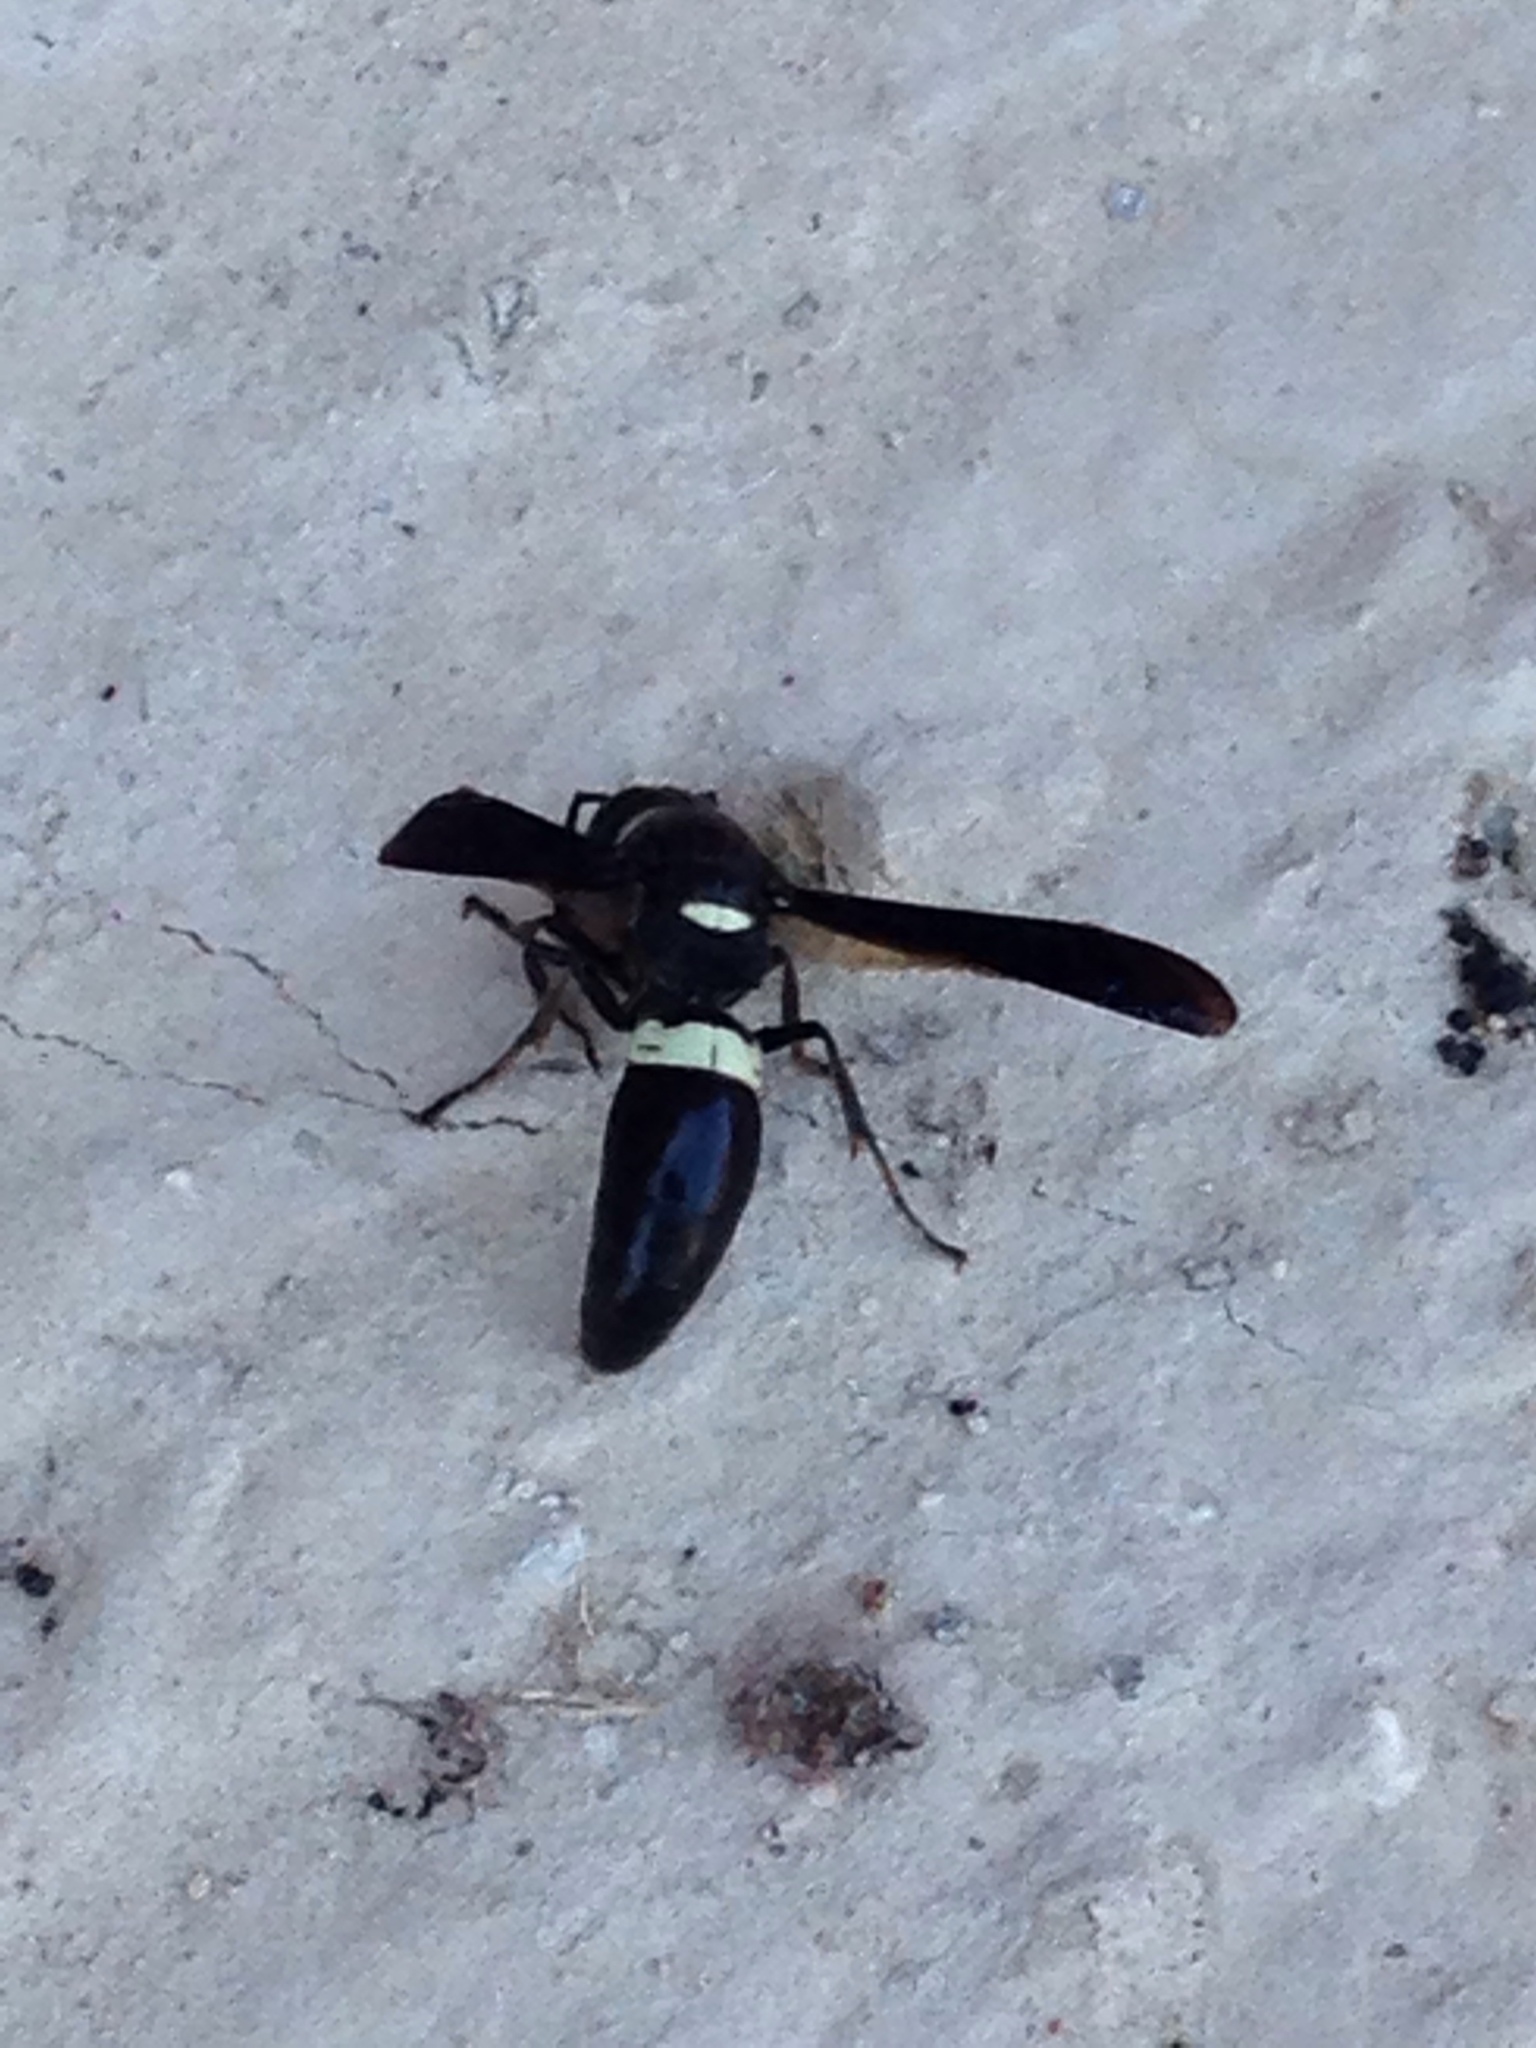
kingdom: Animalia
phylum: Arthropoda
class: Insecta
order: Hymenoptera
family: Eumenidae
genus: Monobia
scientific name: Monobia quadridens
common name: Four-toothed mason wasp
